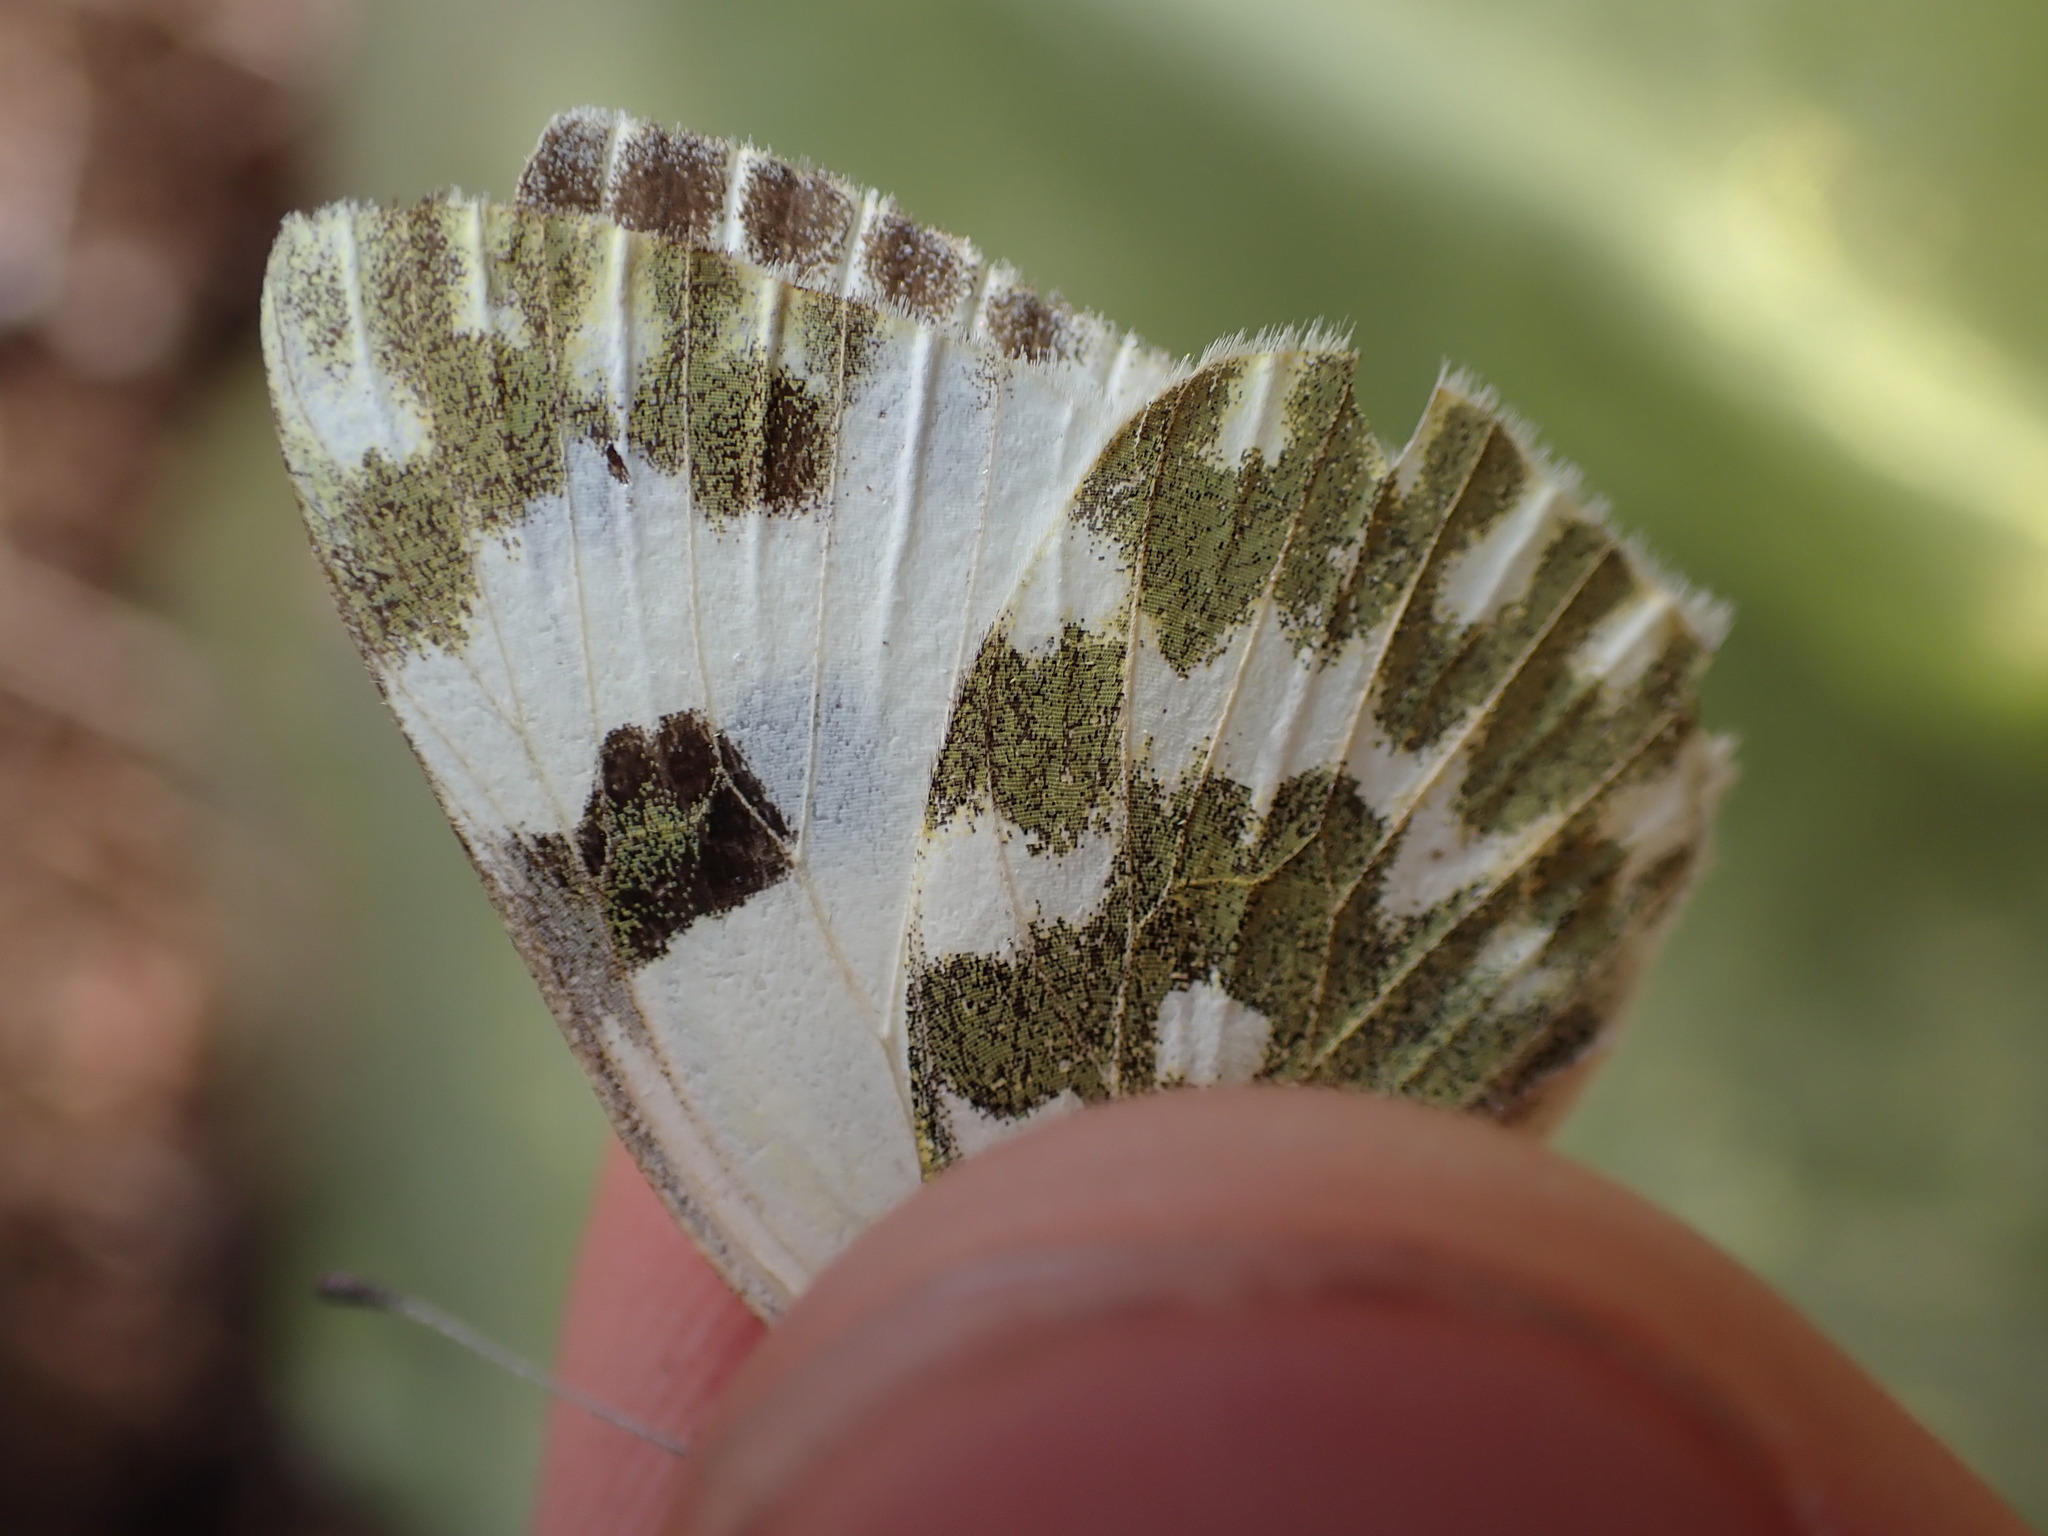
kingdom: Animalia
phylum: Arthropoda
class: Insecta
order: Lepidoptera
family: Pieridae
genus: Pontia
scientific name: Pontia daplidice
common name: Bath white
